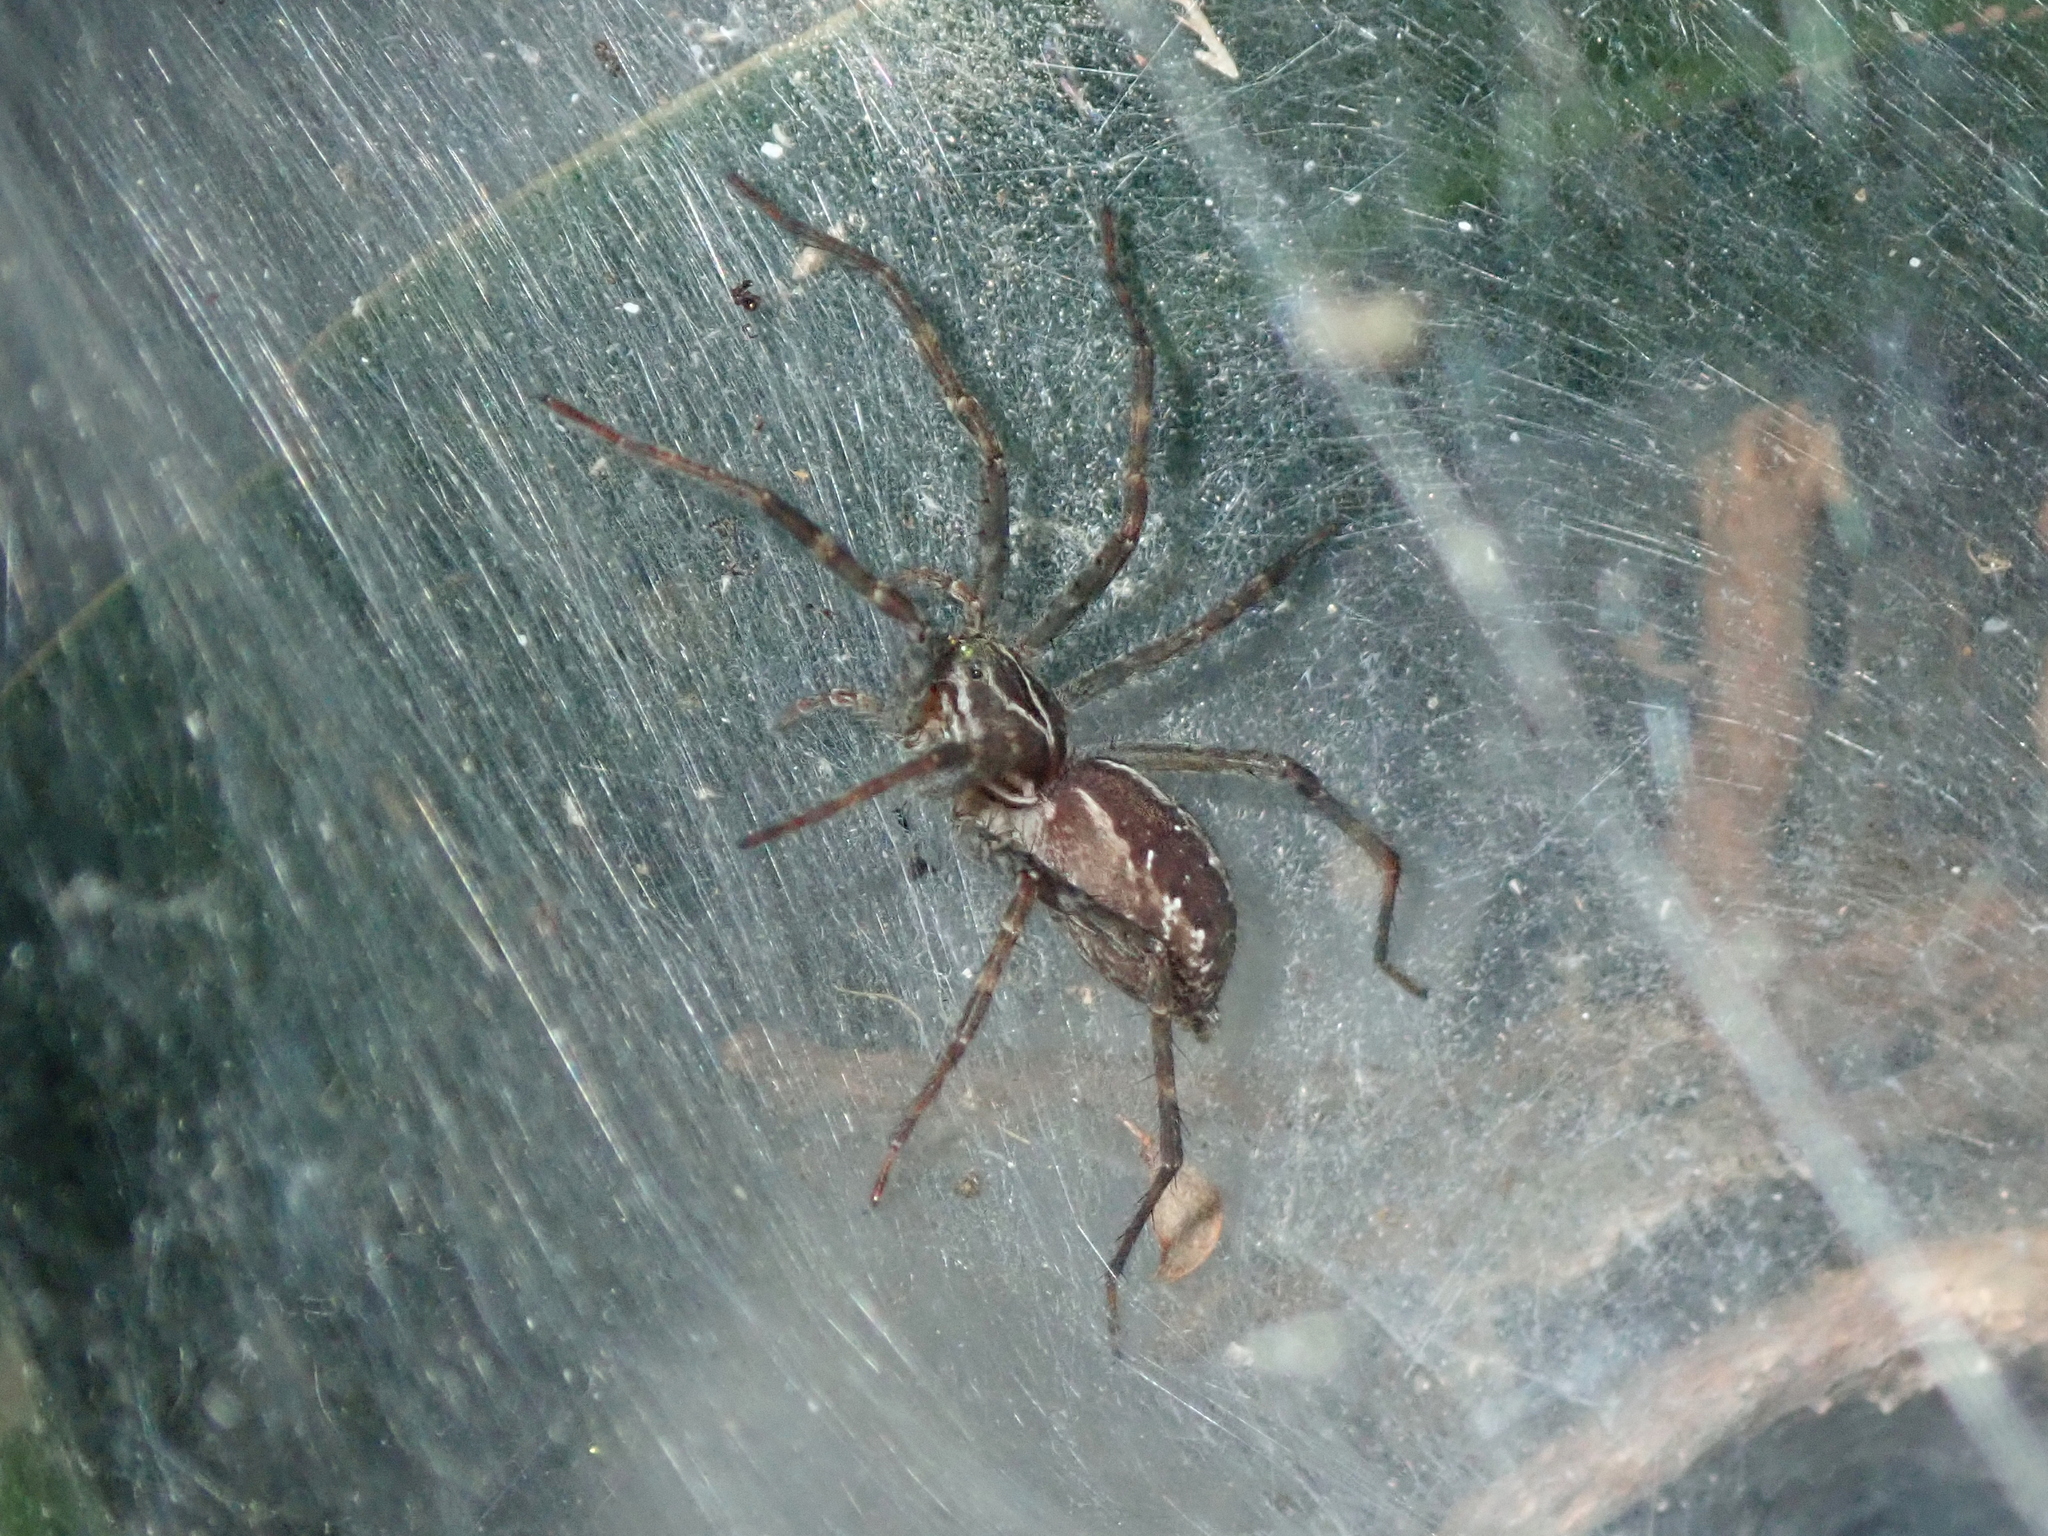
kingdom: Animalia
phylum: Arthropoda
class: Arachnida
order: Araneae
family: Lycosidae
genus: Aglaoctenus
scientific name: Aglaoctenus lagotis
